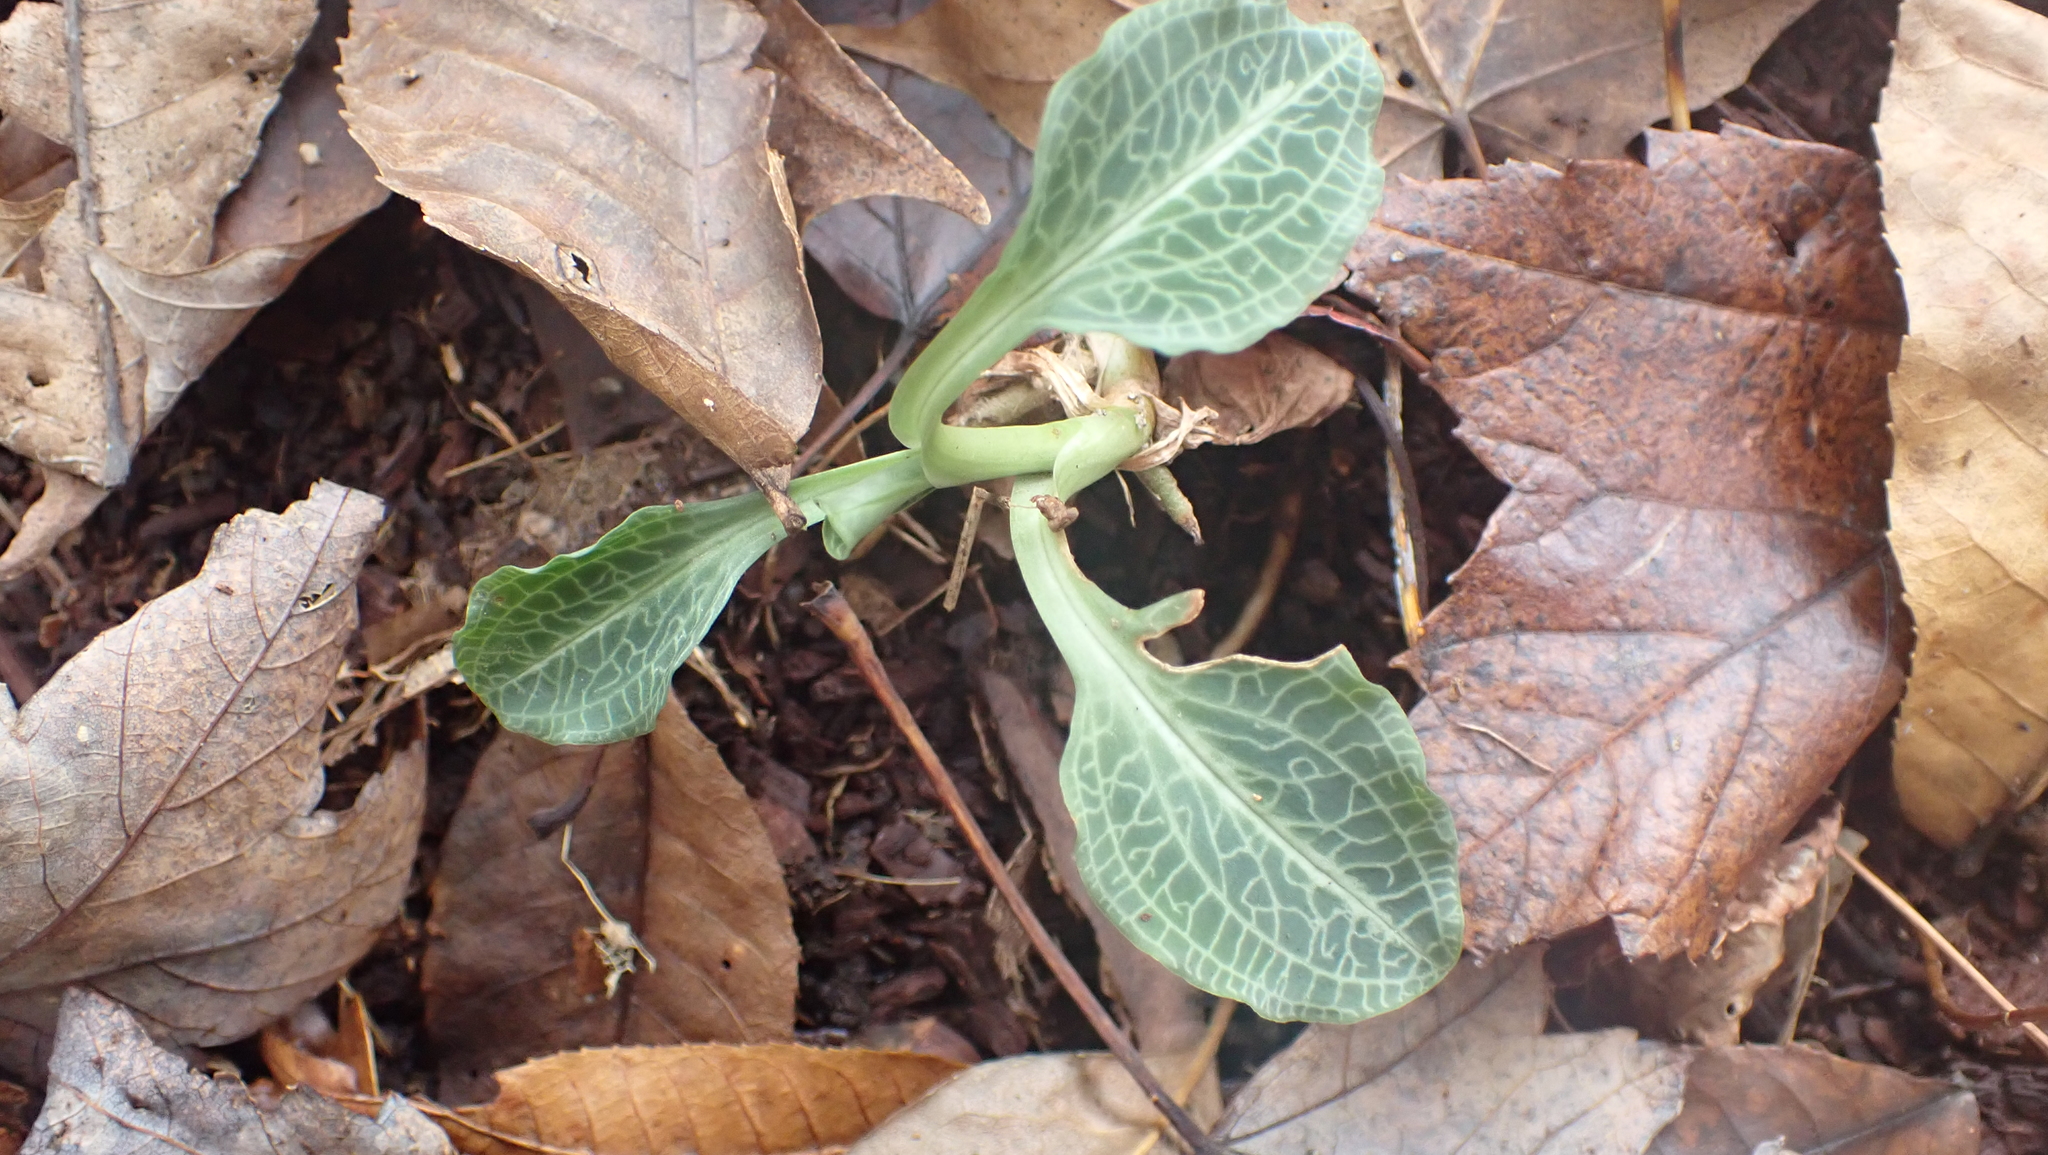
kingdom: Plantae
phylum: Tracheophyta
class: Liliopsida
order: Asparagales
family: Orchidaceae
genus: Goodyera
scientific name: Goodyera pubescens
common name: Downy rattlesnake-plantain
